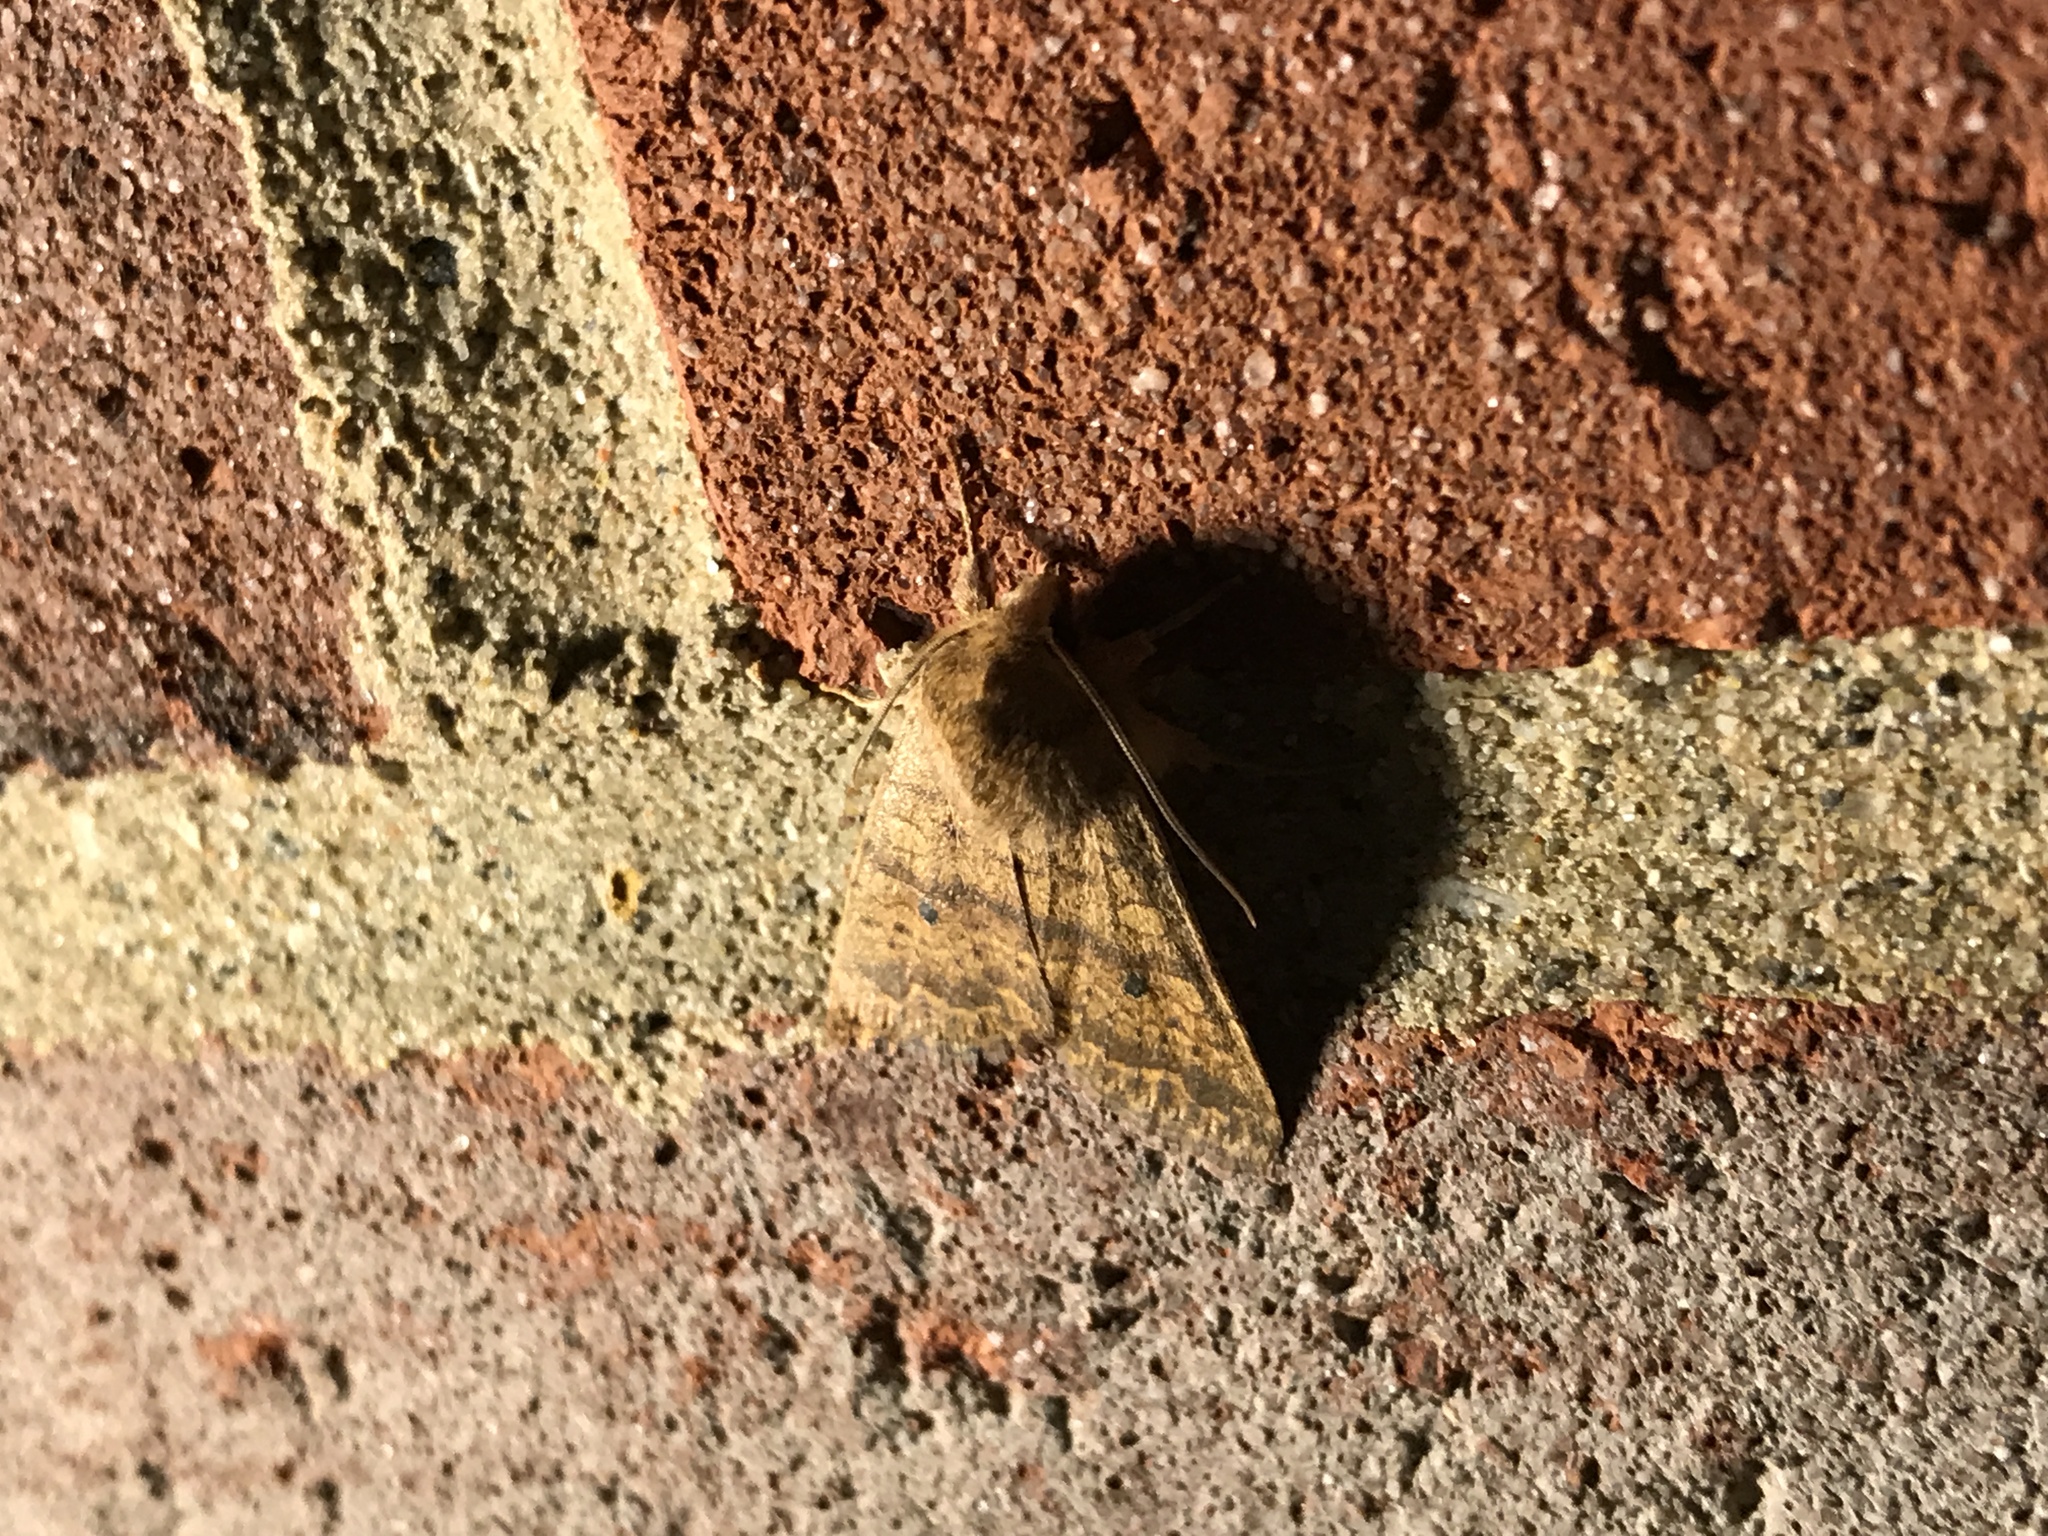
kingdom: Animalia
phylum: Arthropoda
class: Insecta
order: Lepidoptera
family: Noctuidae
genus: Agrochola
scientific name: Agrochola bicolorago
